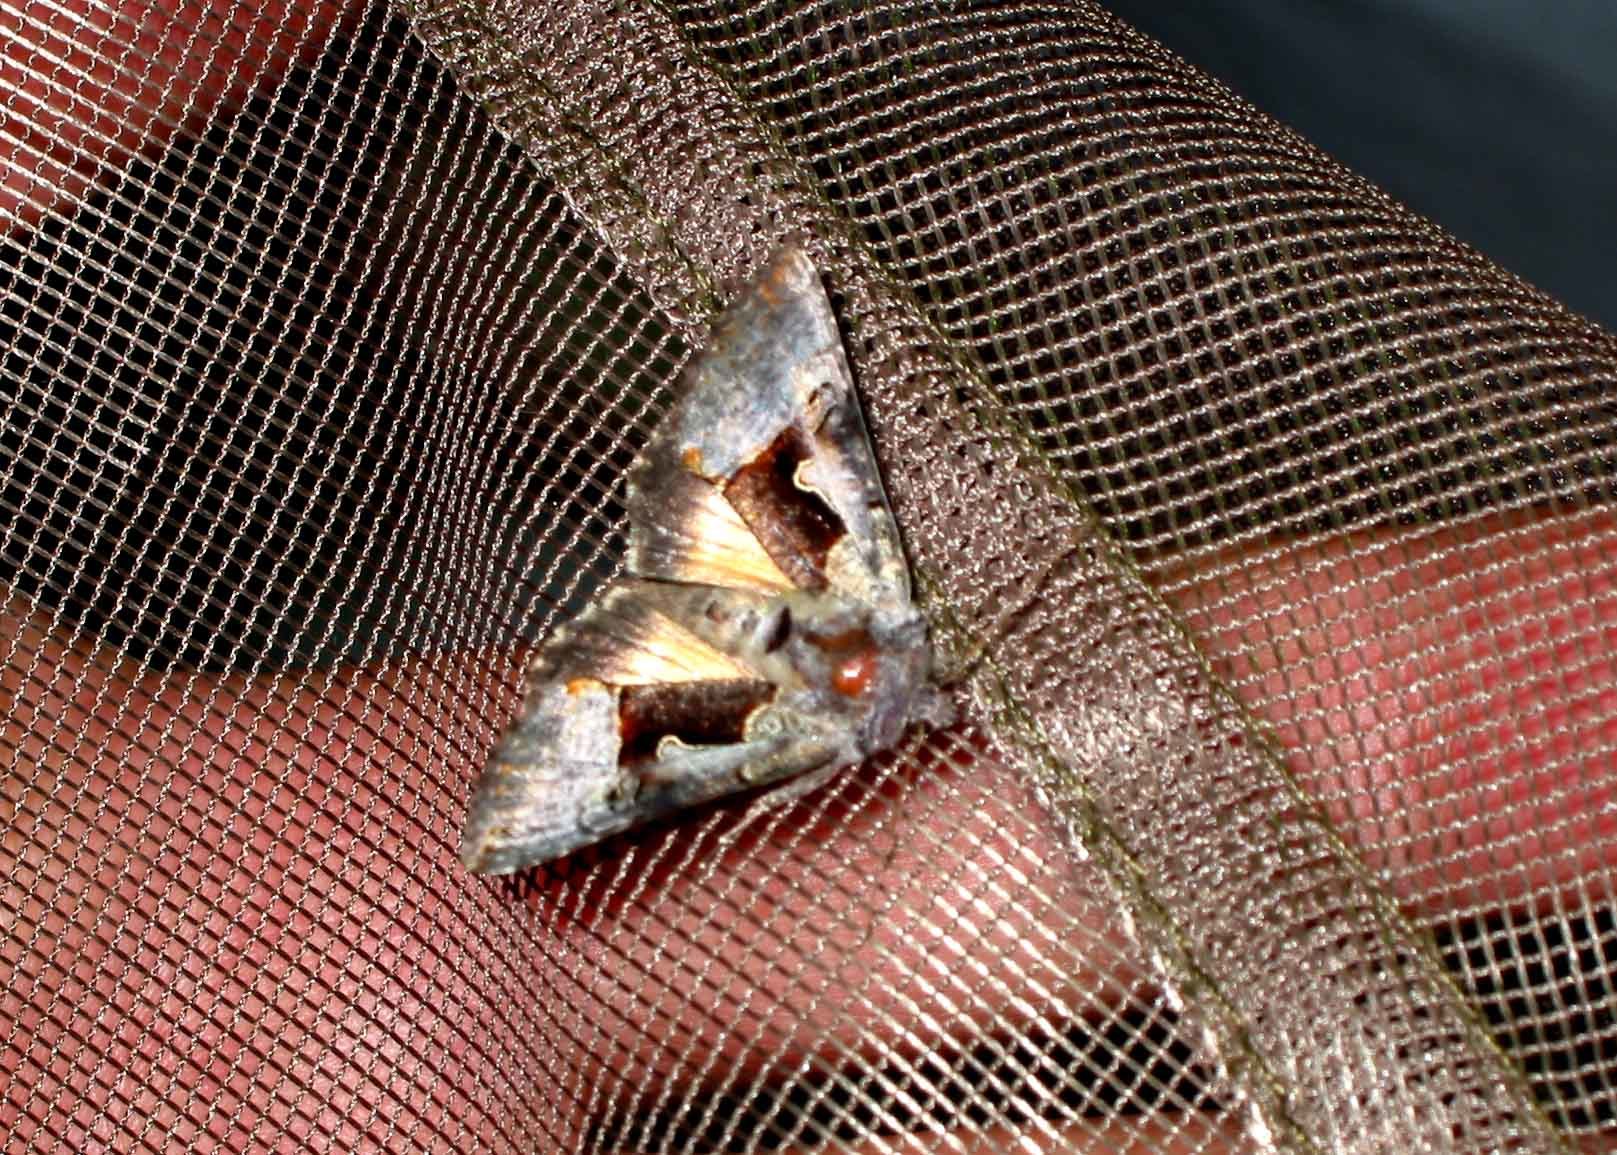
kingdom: Animalia
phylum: Arthropoda
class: Insecta
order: Lepidoptera
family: Noctuidae
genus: Syngrapha
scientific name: Syngrapha diasema
